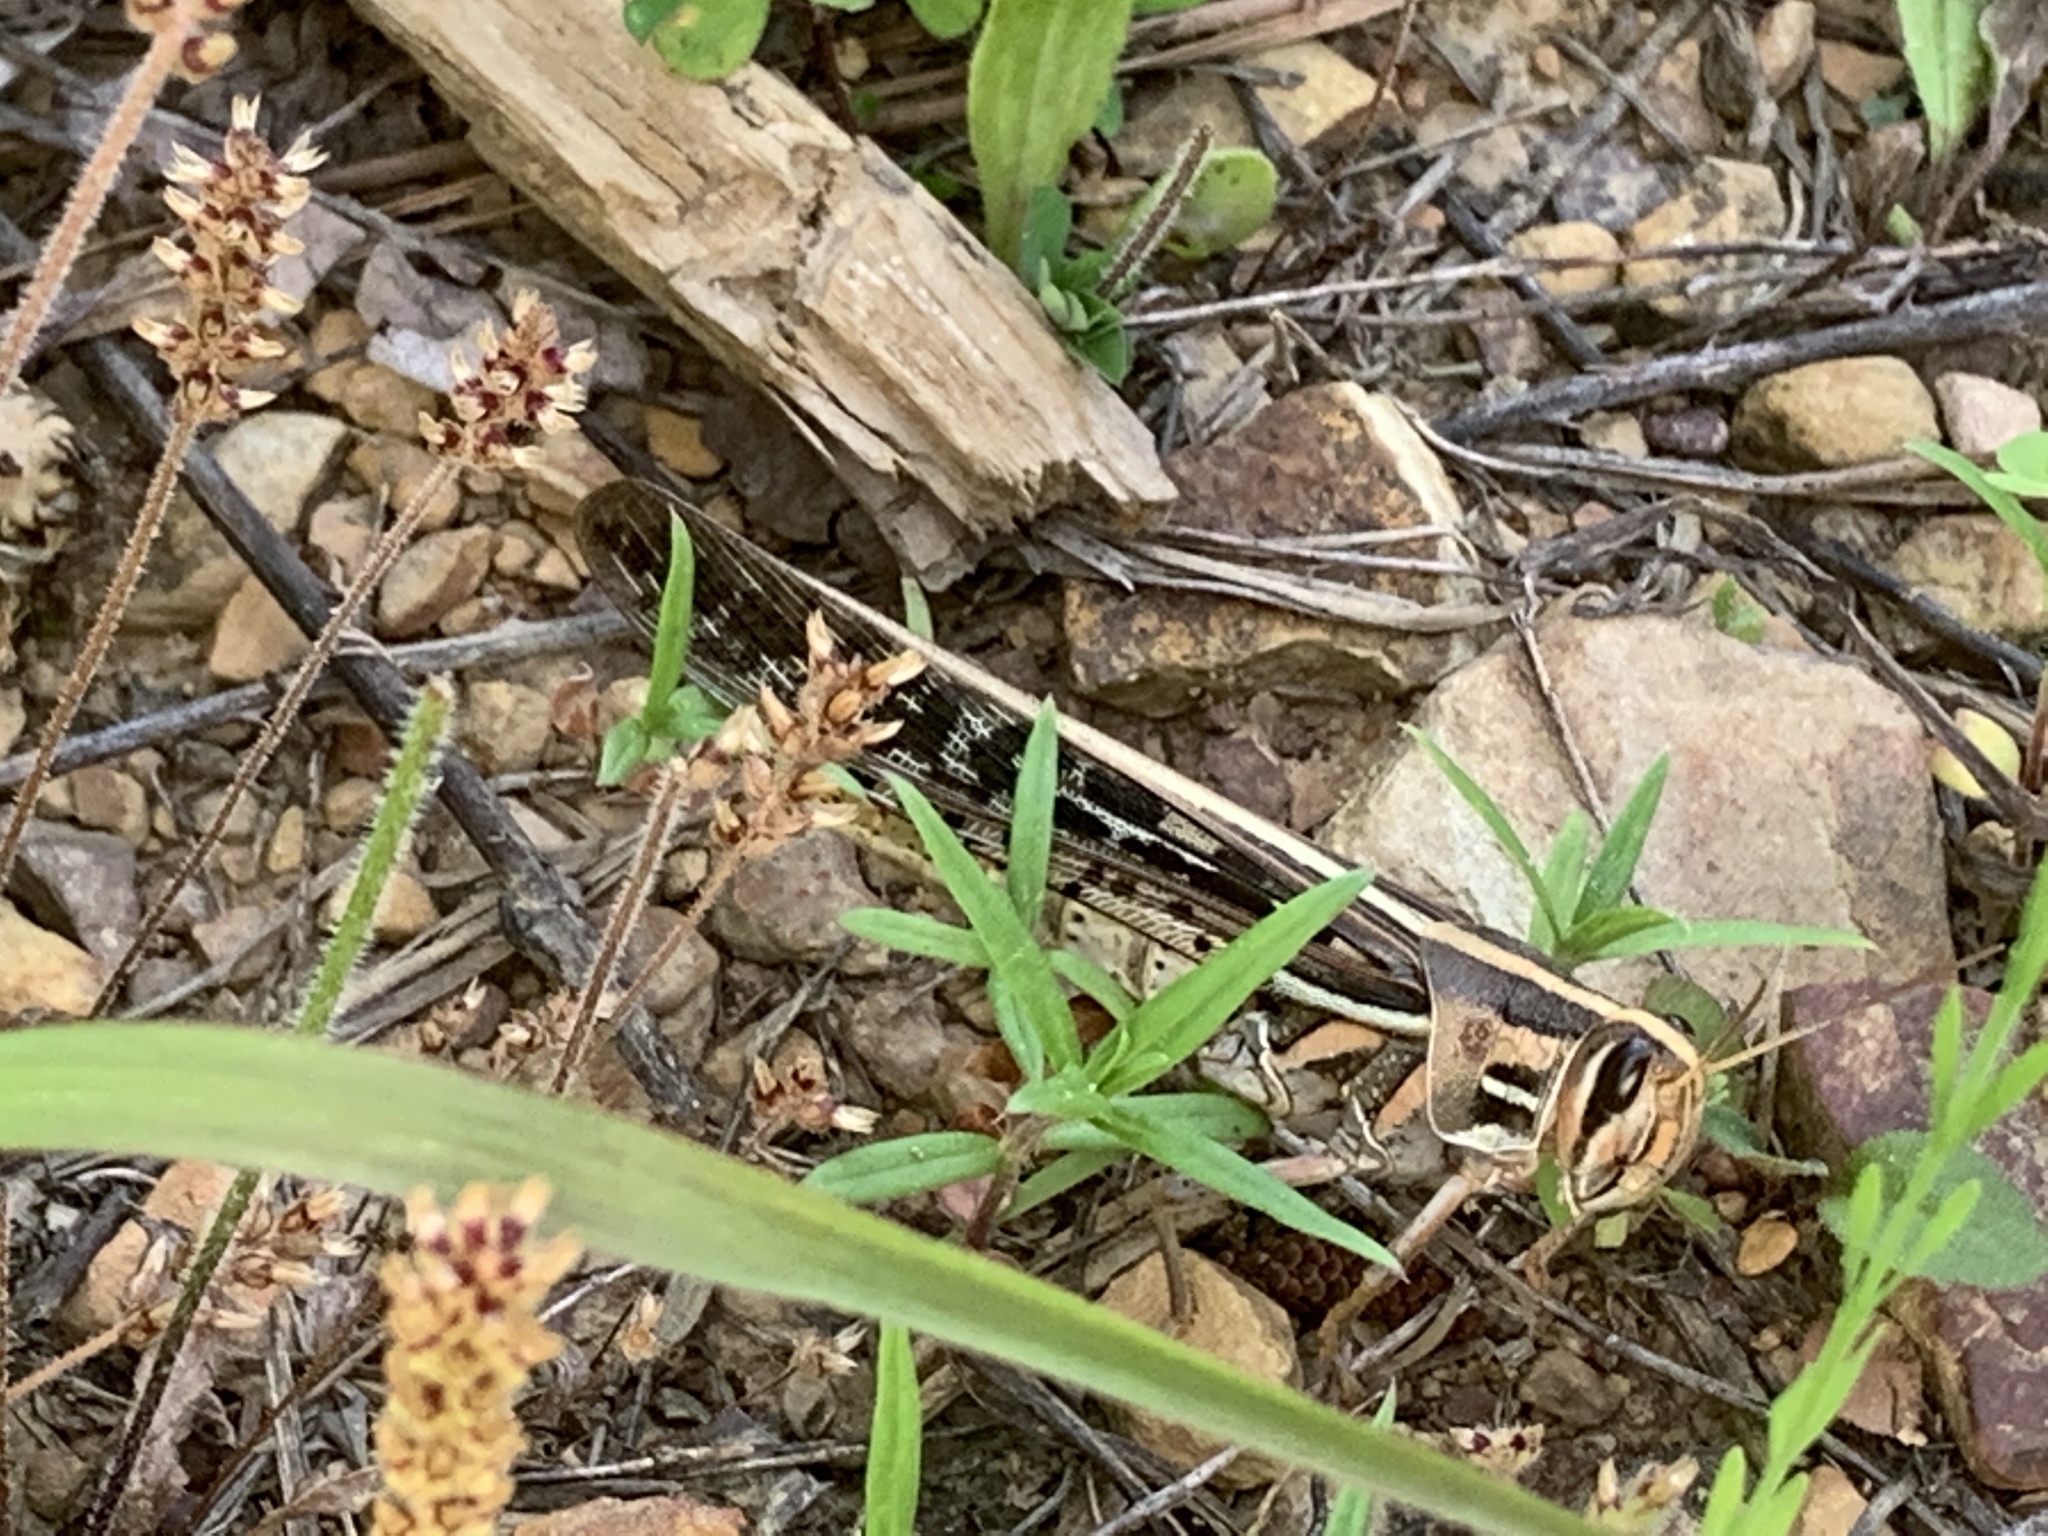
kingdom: Animalia
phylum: Arthropoda
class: Insecta
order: Orthoptera
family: Acrididae
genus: Schistocerca
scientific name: Schistocerca americana
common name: American bird locust
